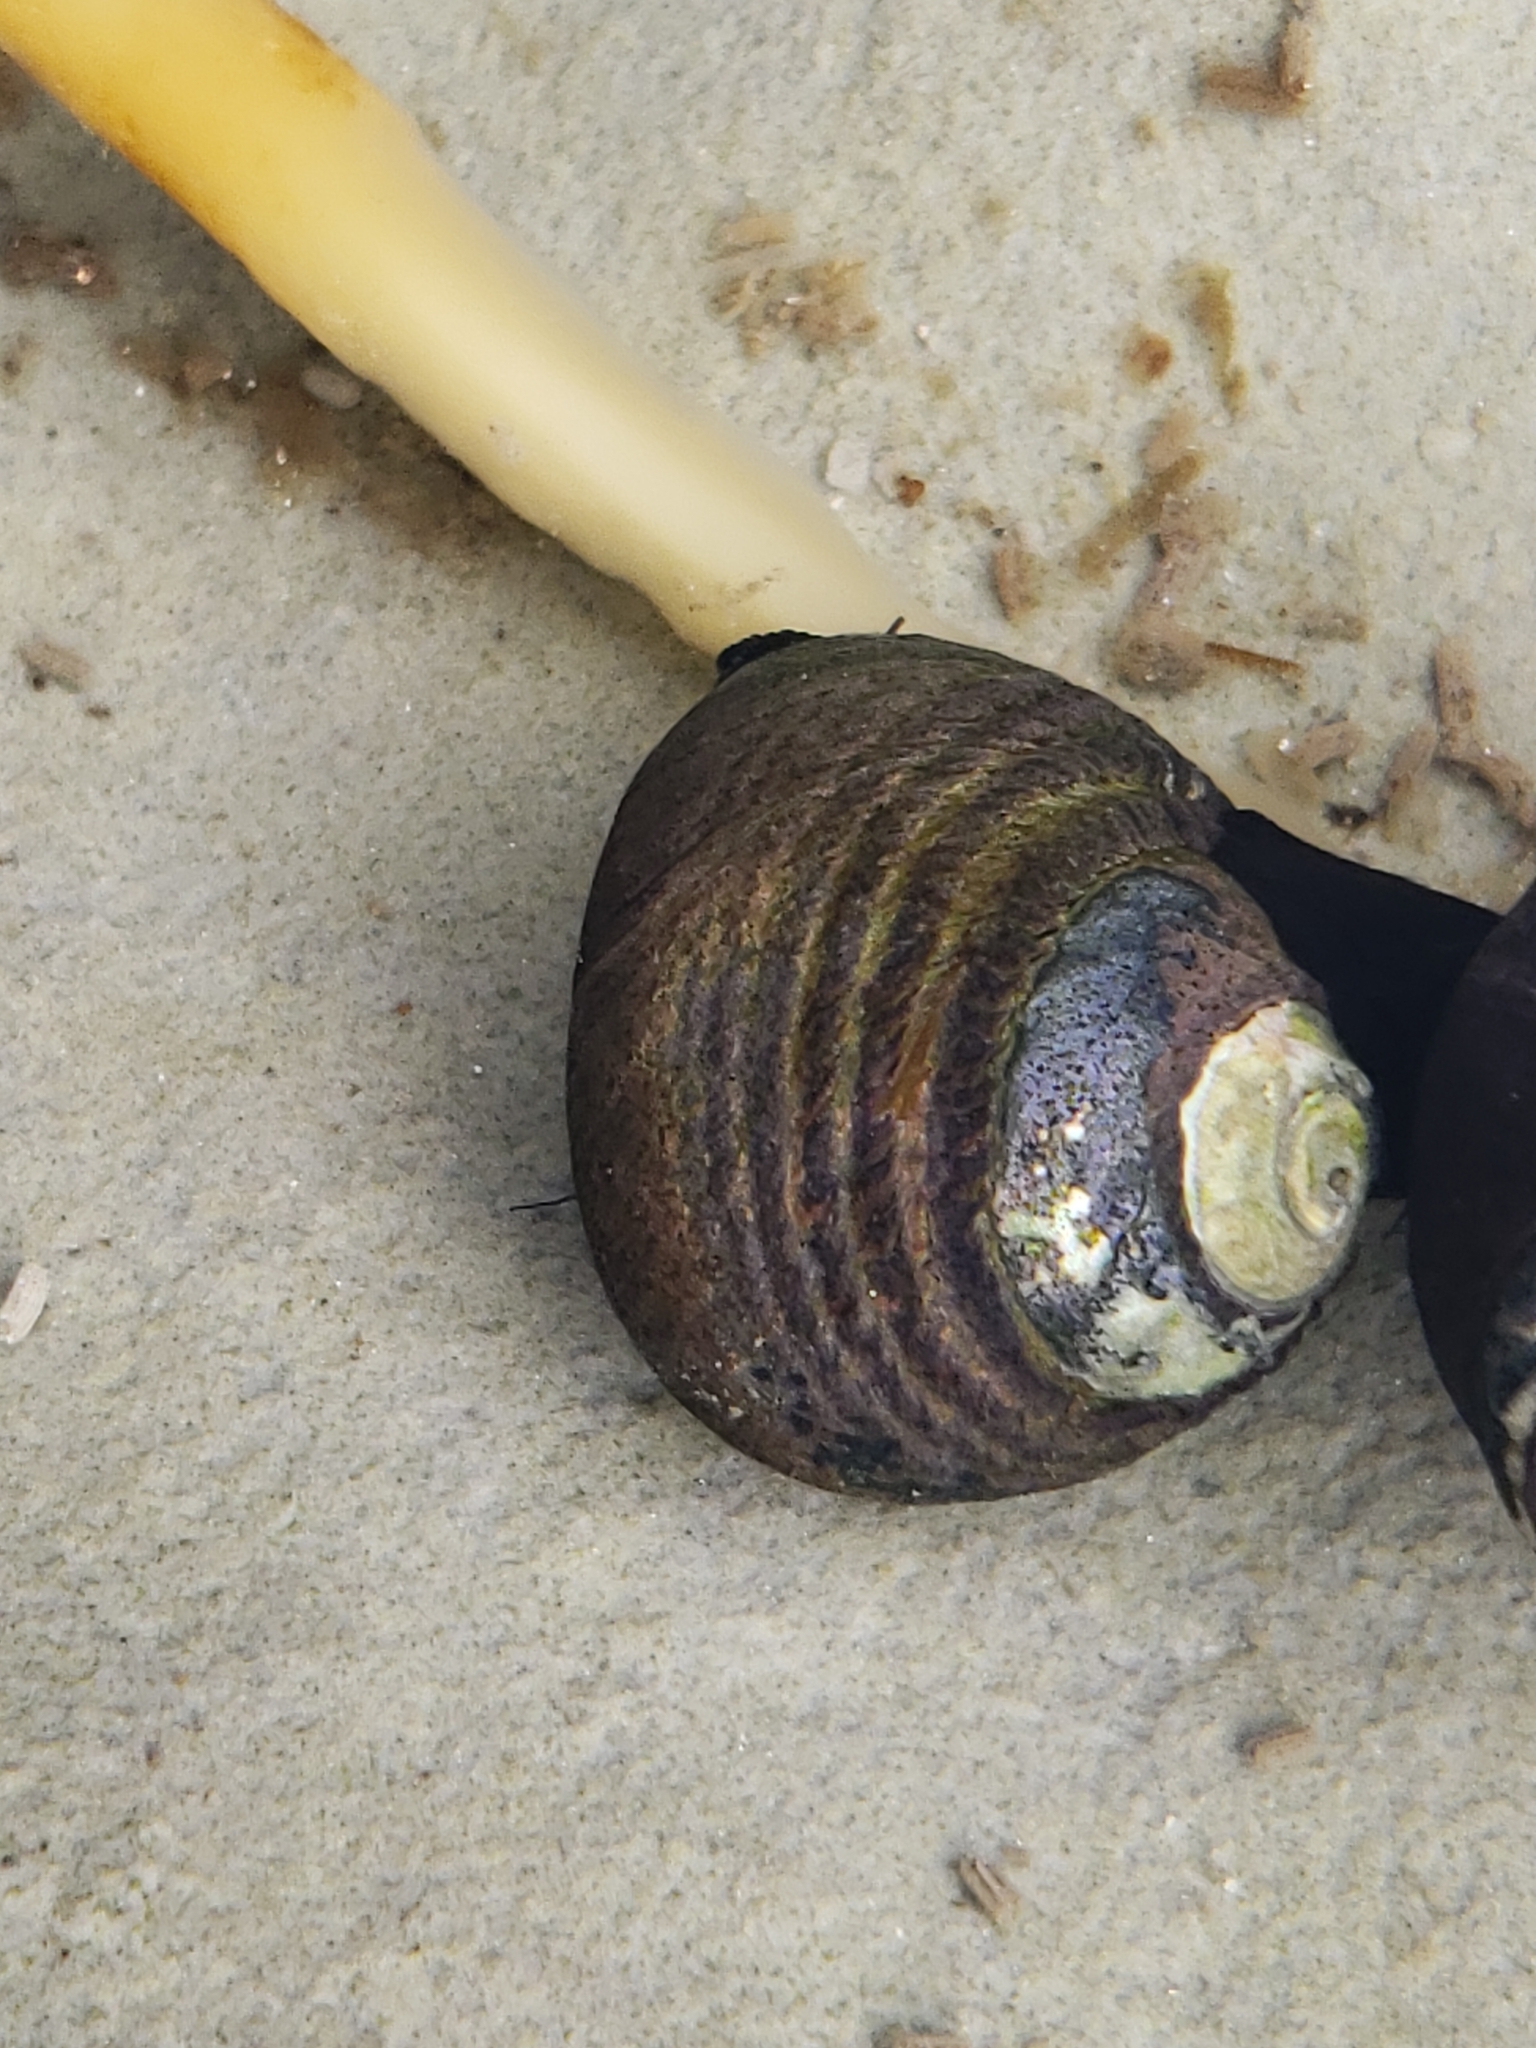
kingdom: Animalia
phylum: Mollusca
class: Gastropoda
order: Trochida
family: Tegulidae
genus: Tegula
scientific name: Tegula funebralis
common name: Black tegula
